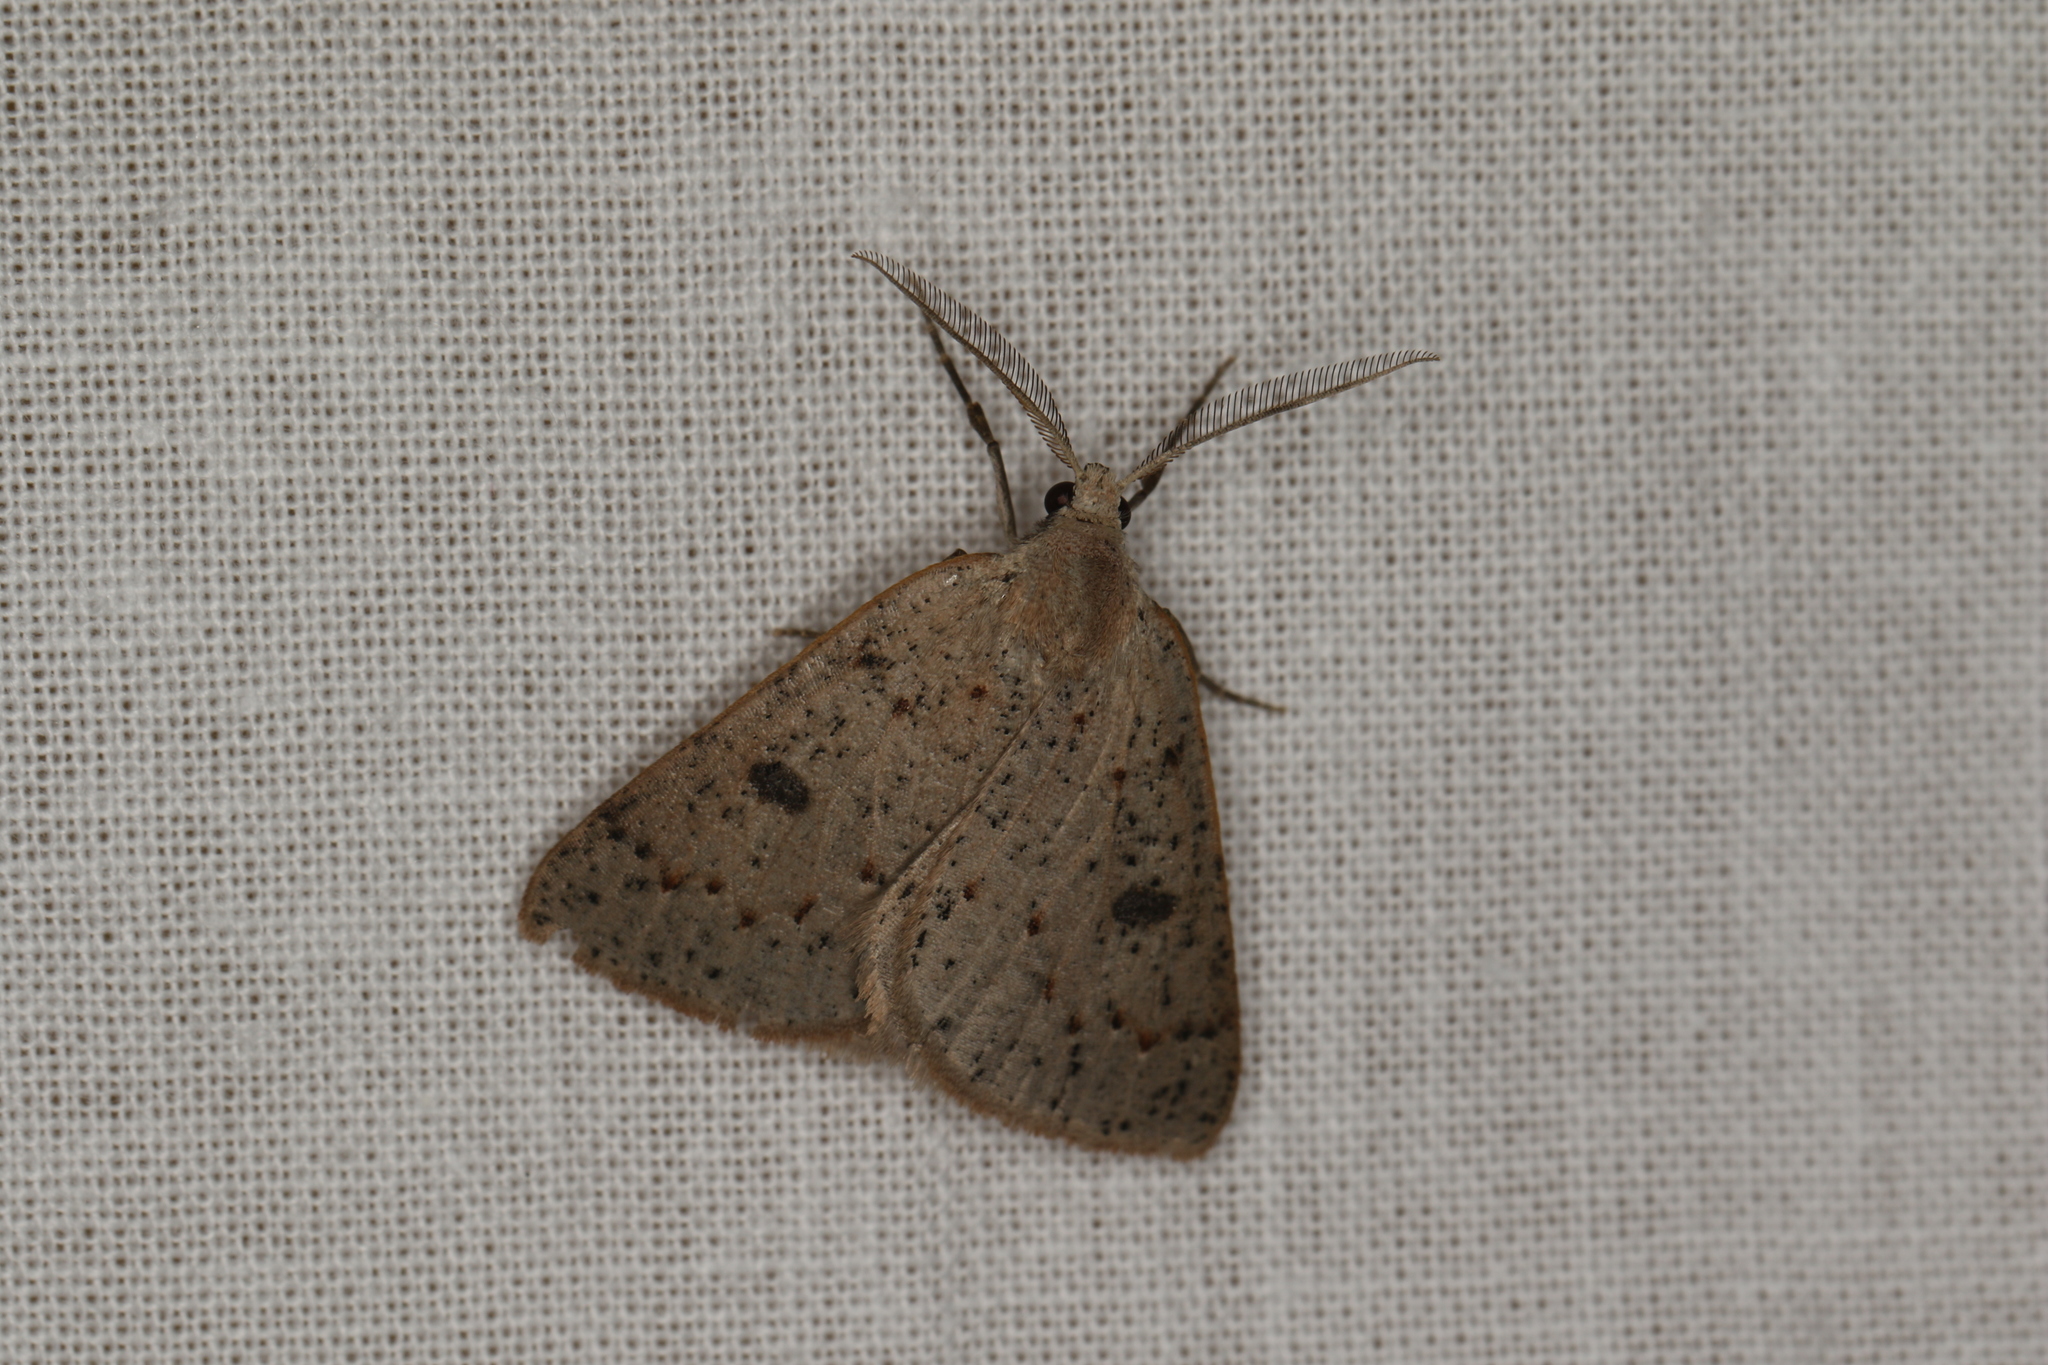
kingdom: Animalia
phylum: Arthropoda
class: Insecta
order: Lepidoptera
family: Geometridae
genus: Loweria
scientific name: Loweria capnosticta
